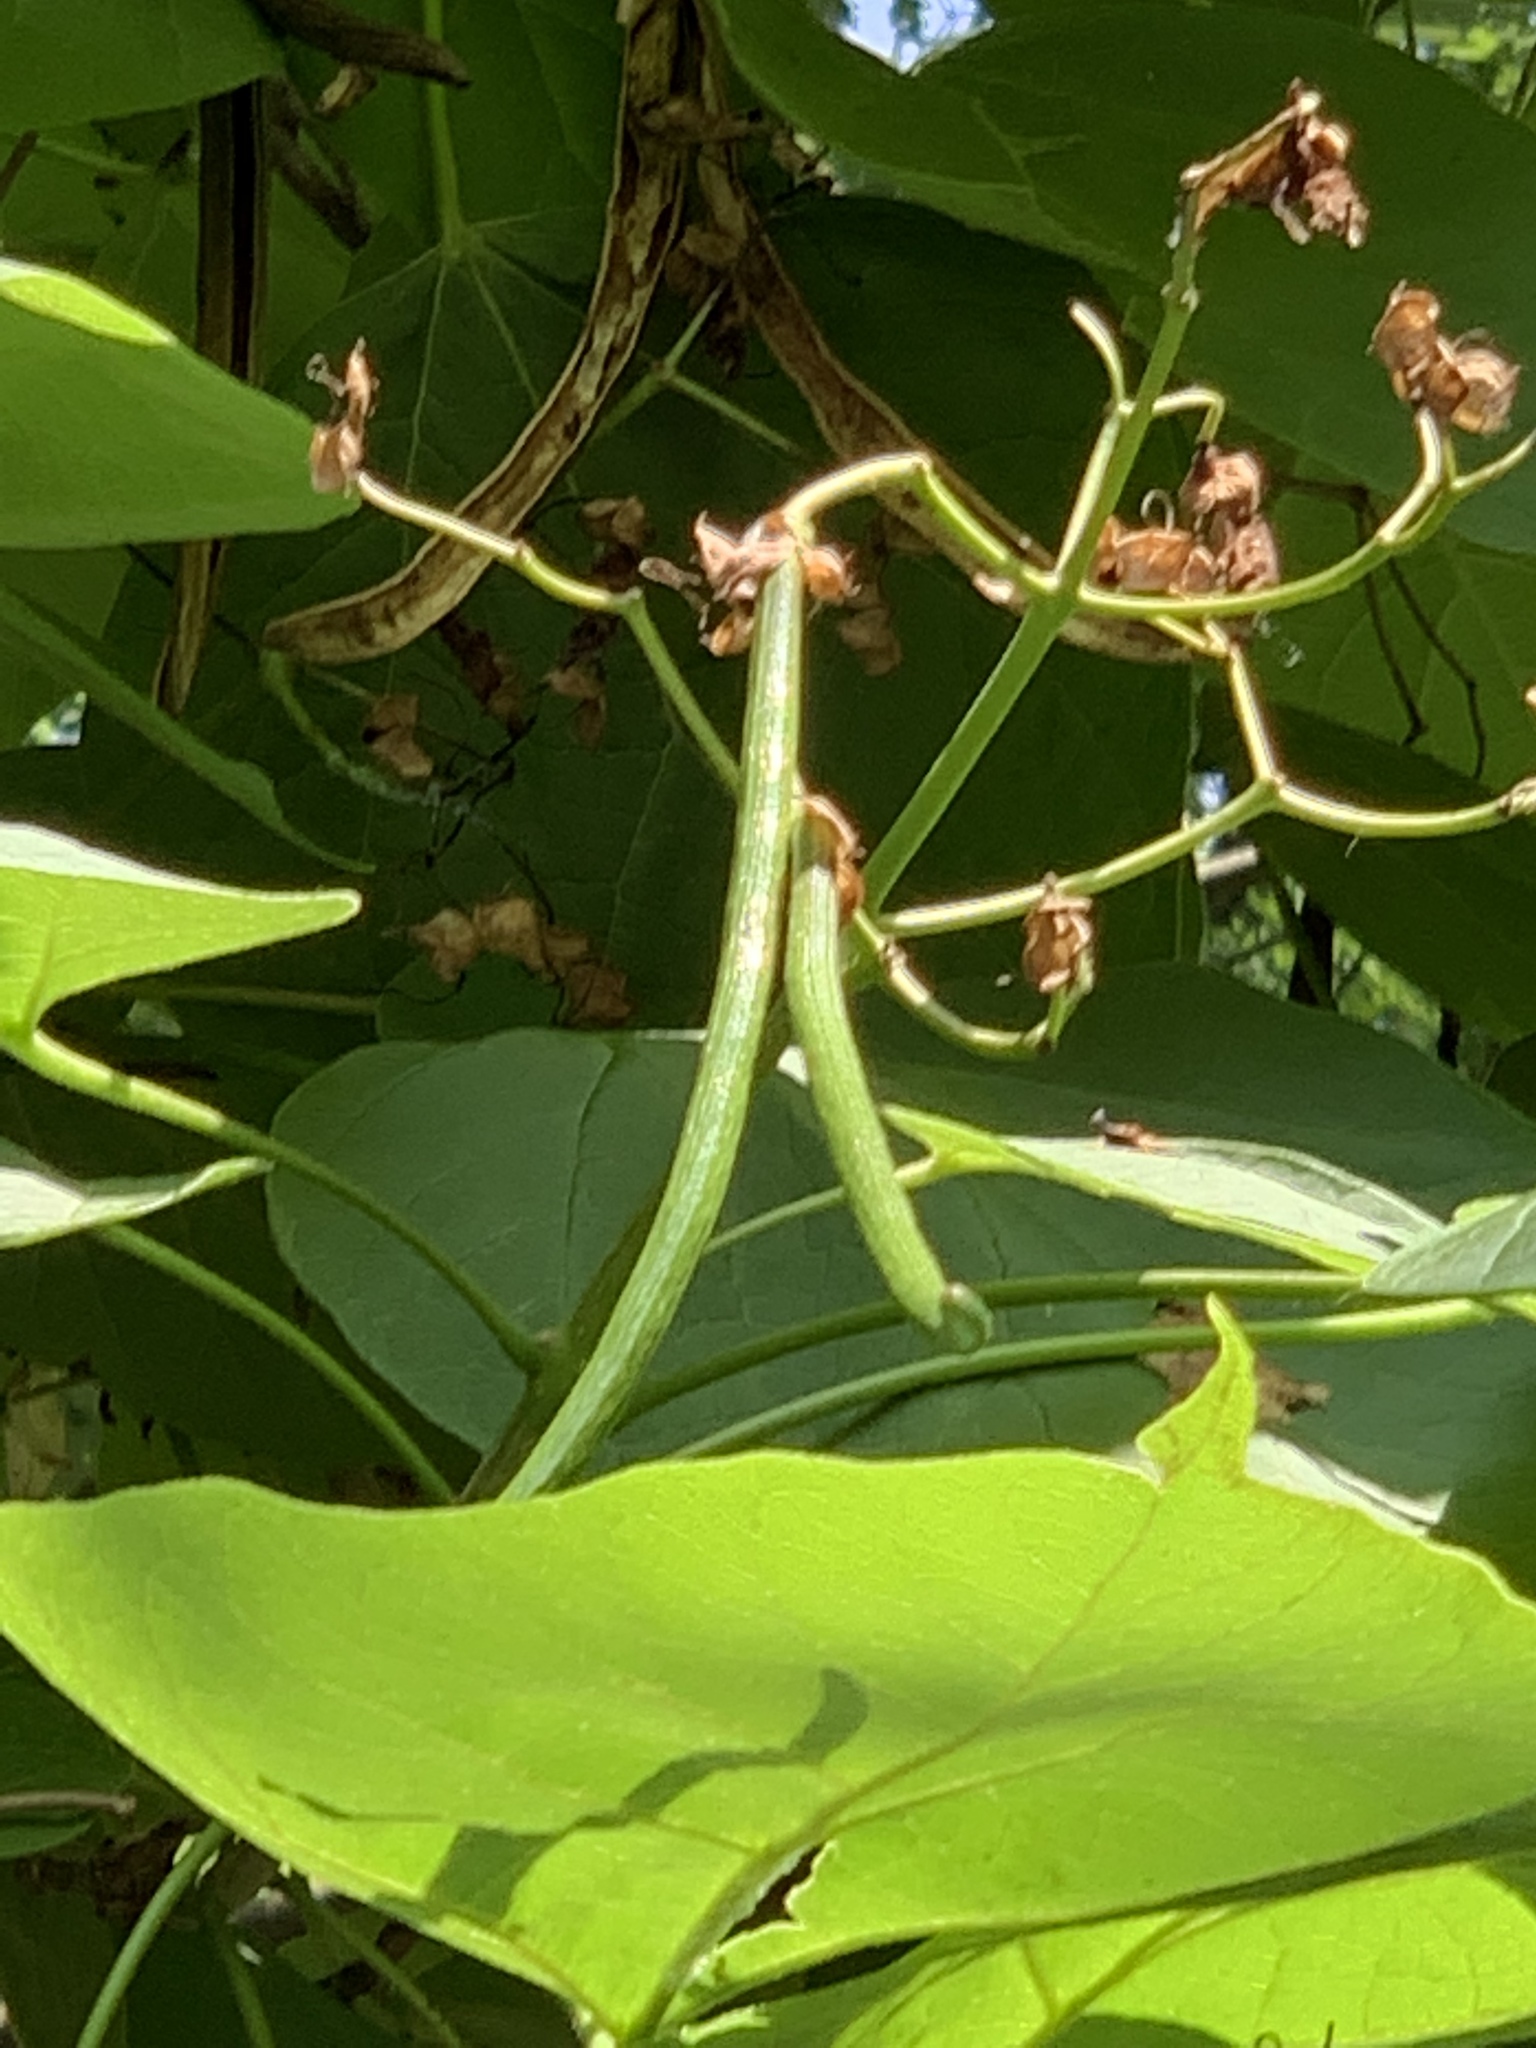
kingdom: Plantae
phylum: Tracheophyta
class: Magnoliopsida
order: Lamiales
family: Bignoniaceae
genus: Catalpa
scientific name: Catalpa speciosa
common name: Northern catalpa
